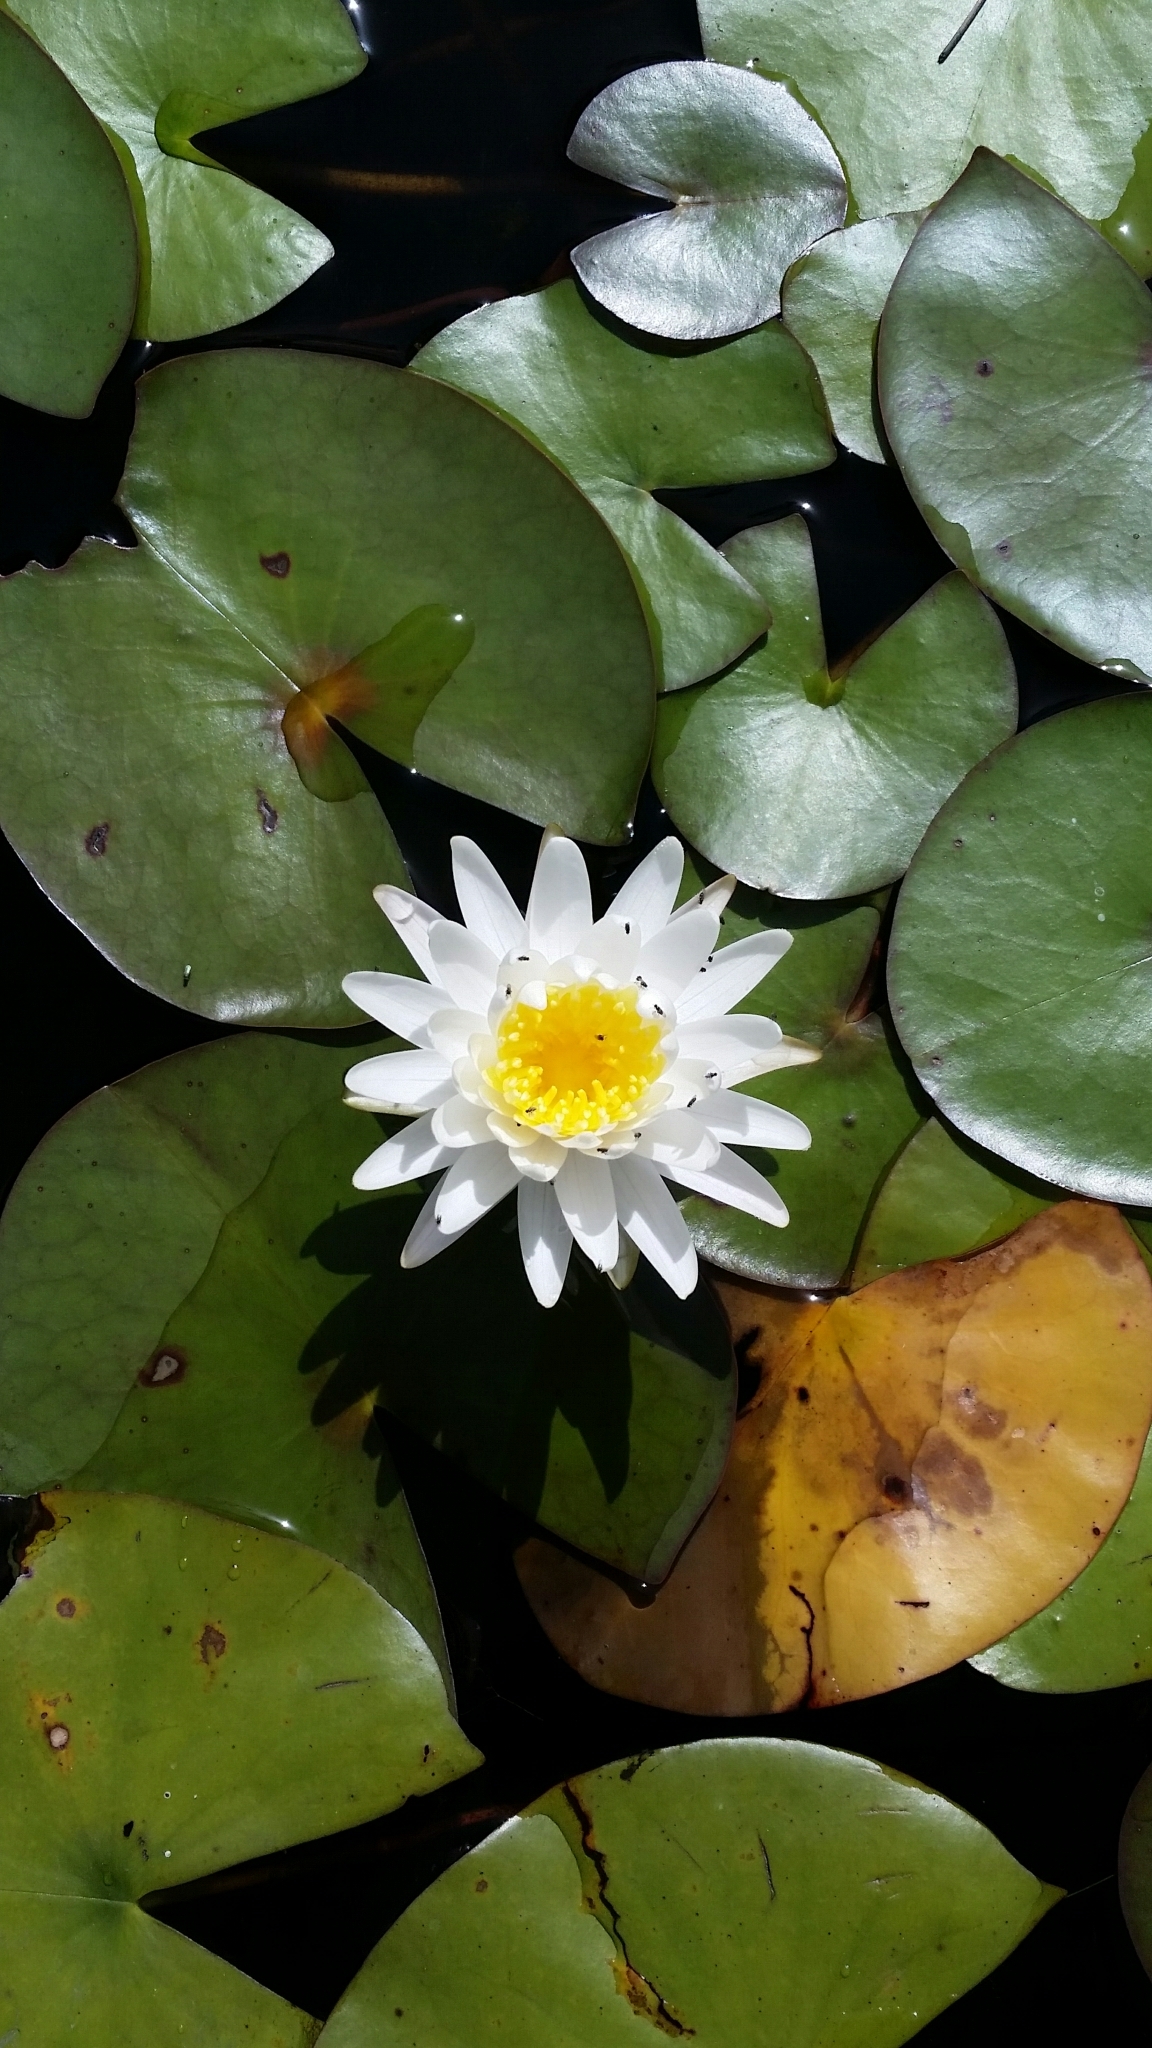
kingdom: Plantae
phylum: Tracheophyta
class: Magnoliopsida
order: Nymphaeales
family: Nymphaeaceae
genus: Nymphaea
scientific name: Nymphaea odorata
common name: Fragrant water-lily
